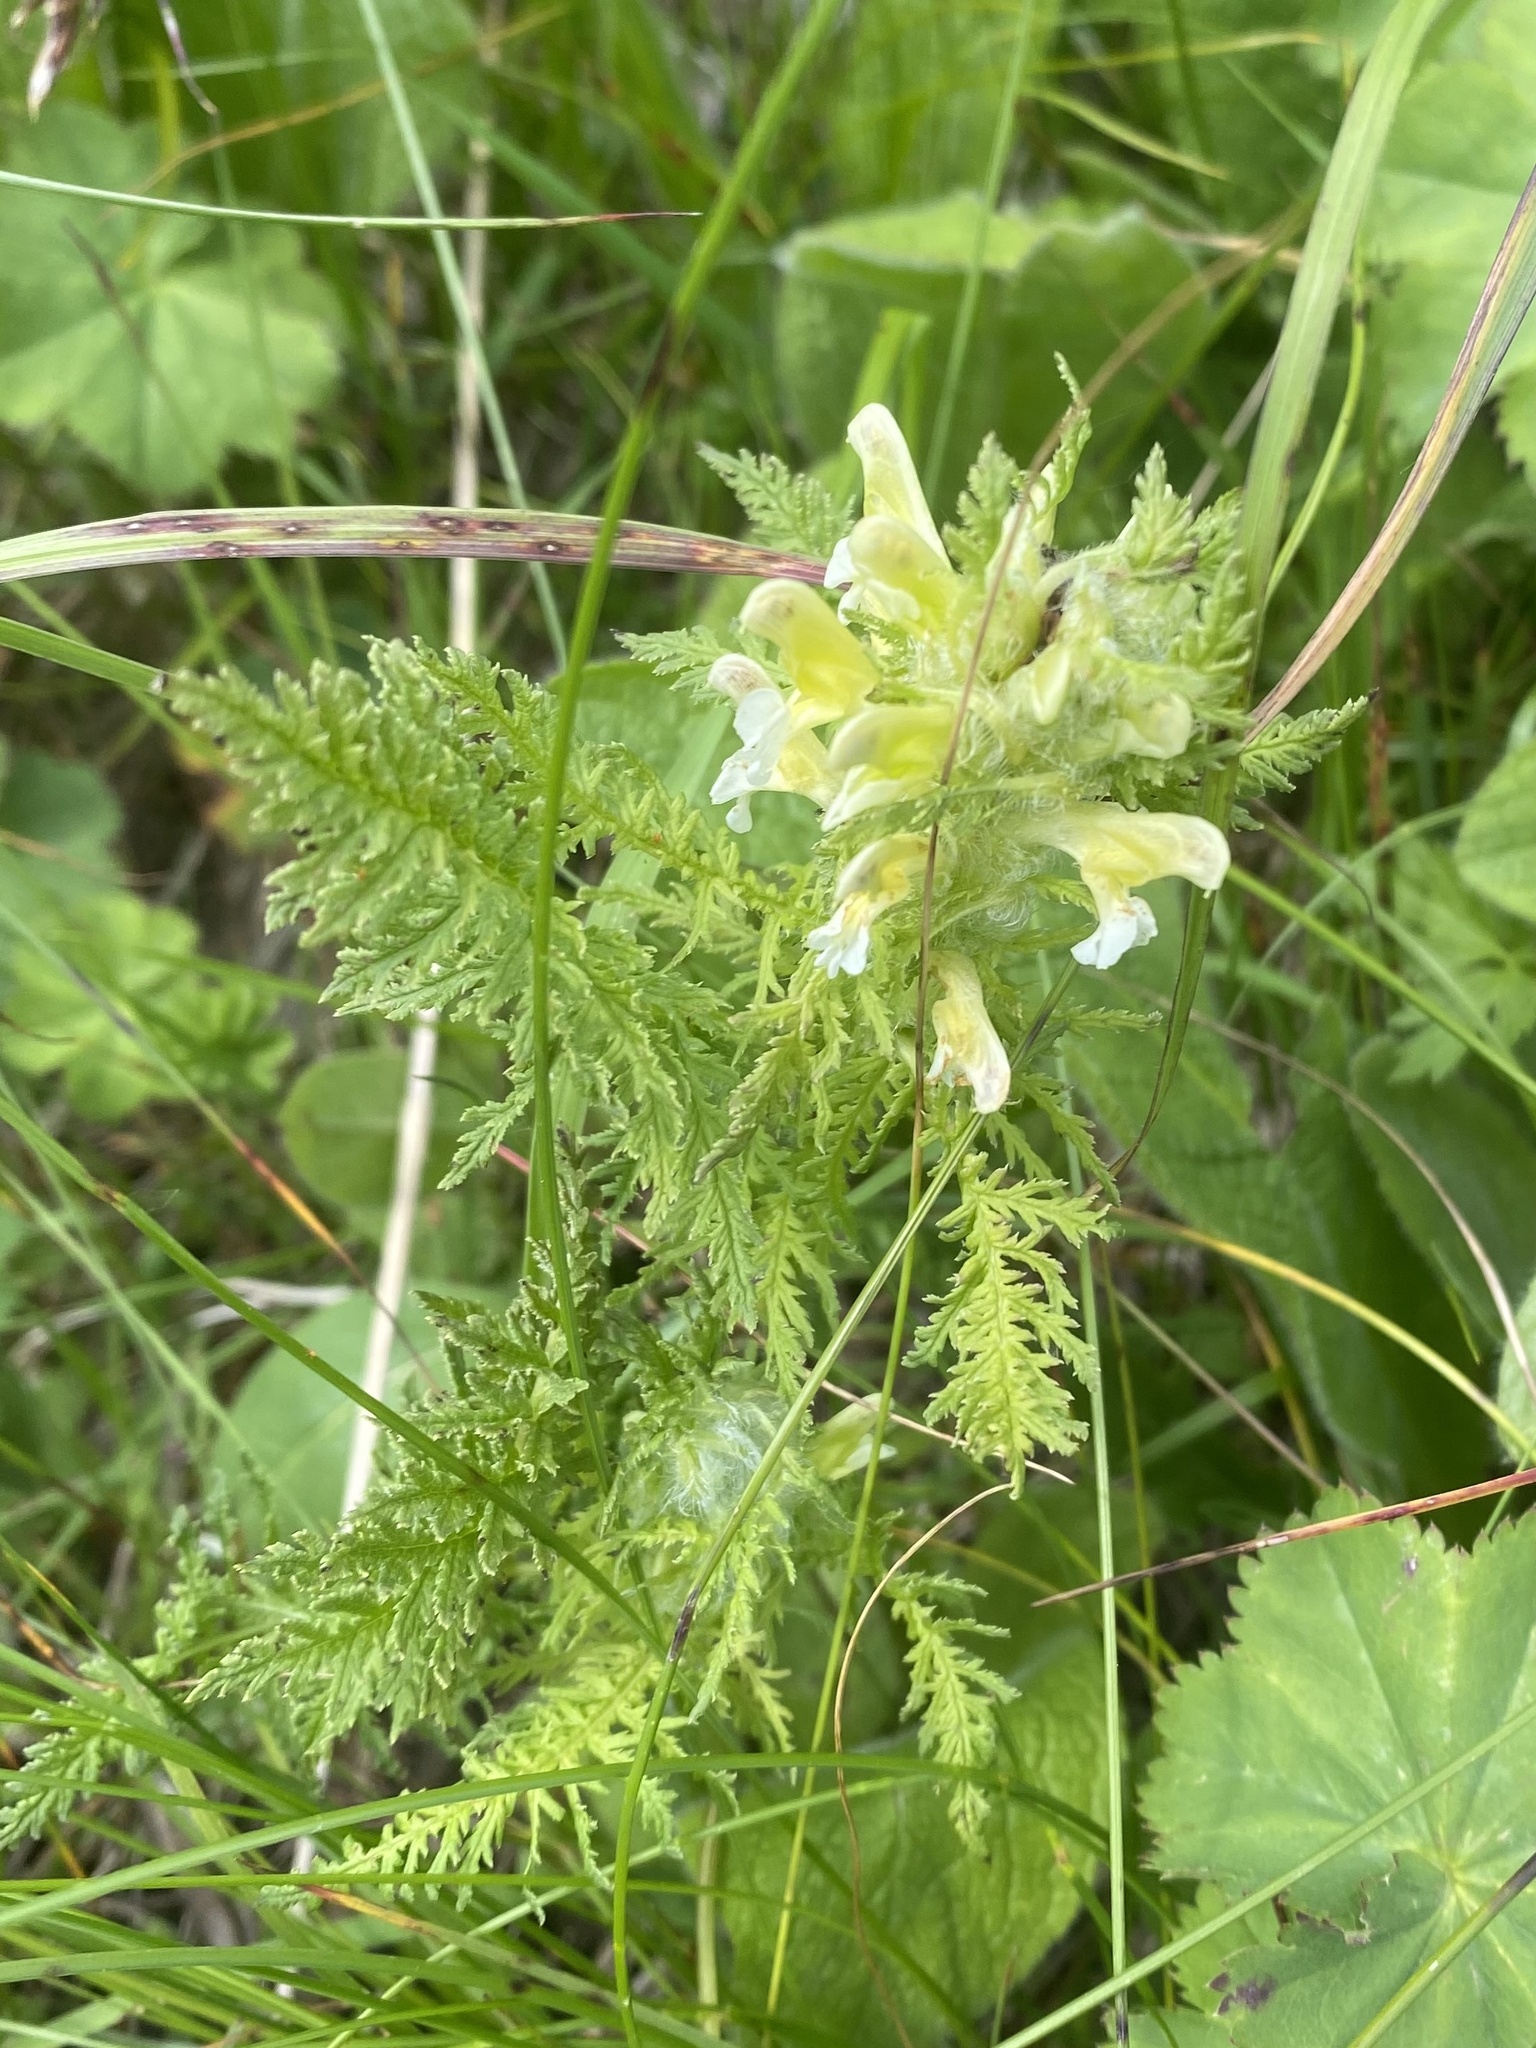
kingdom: Plantae
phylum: Tracheophyta
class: Magnoliopsida
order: Lamiales
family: Orobanchaceae
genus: Pedicularis
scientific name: Pedicularis condensata
